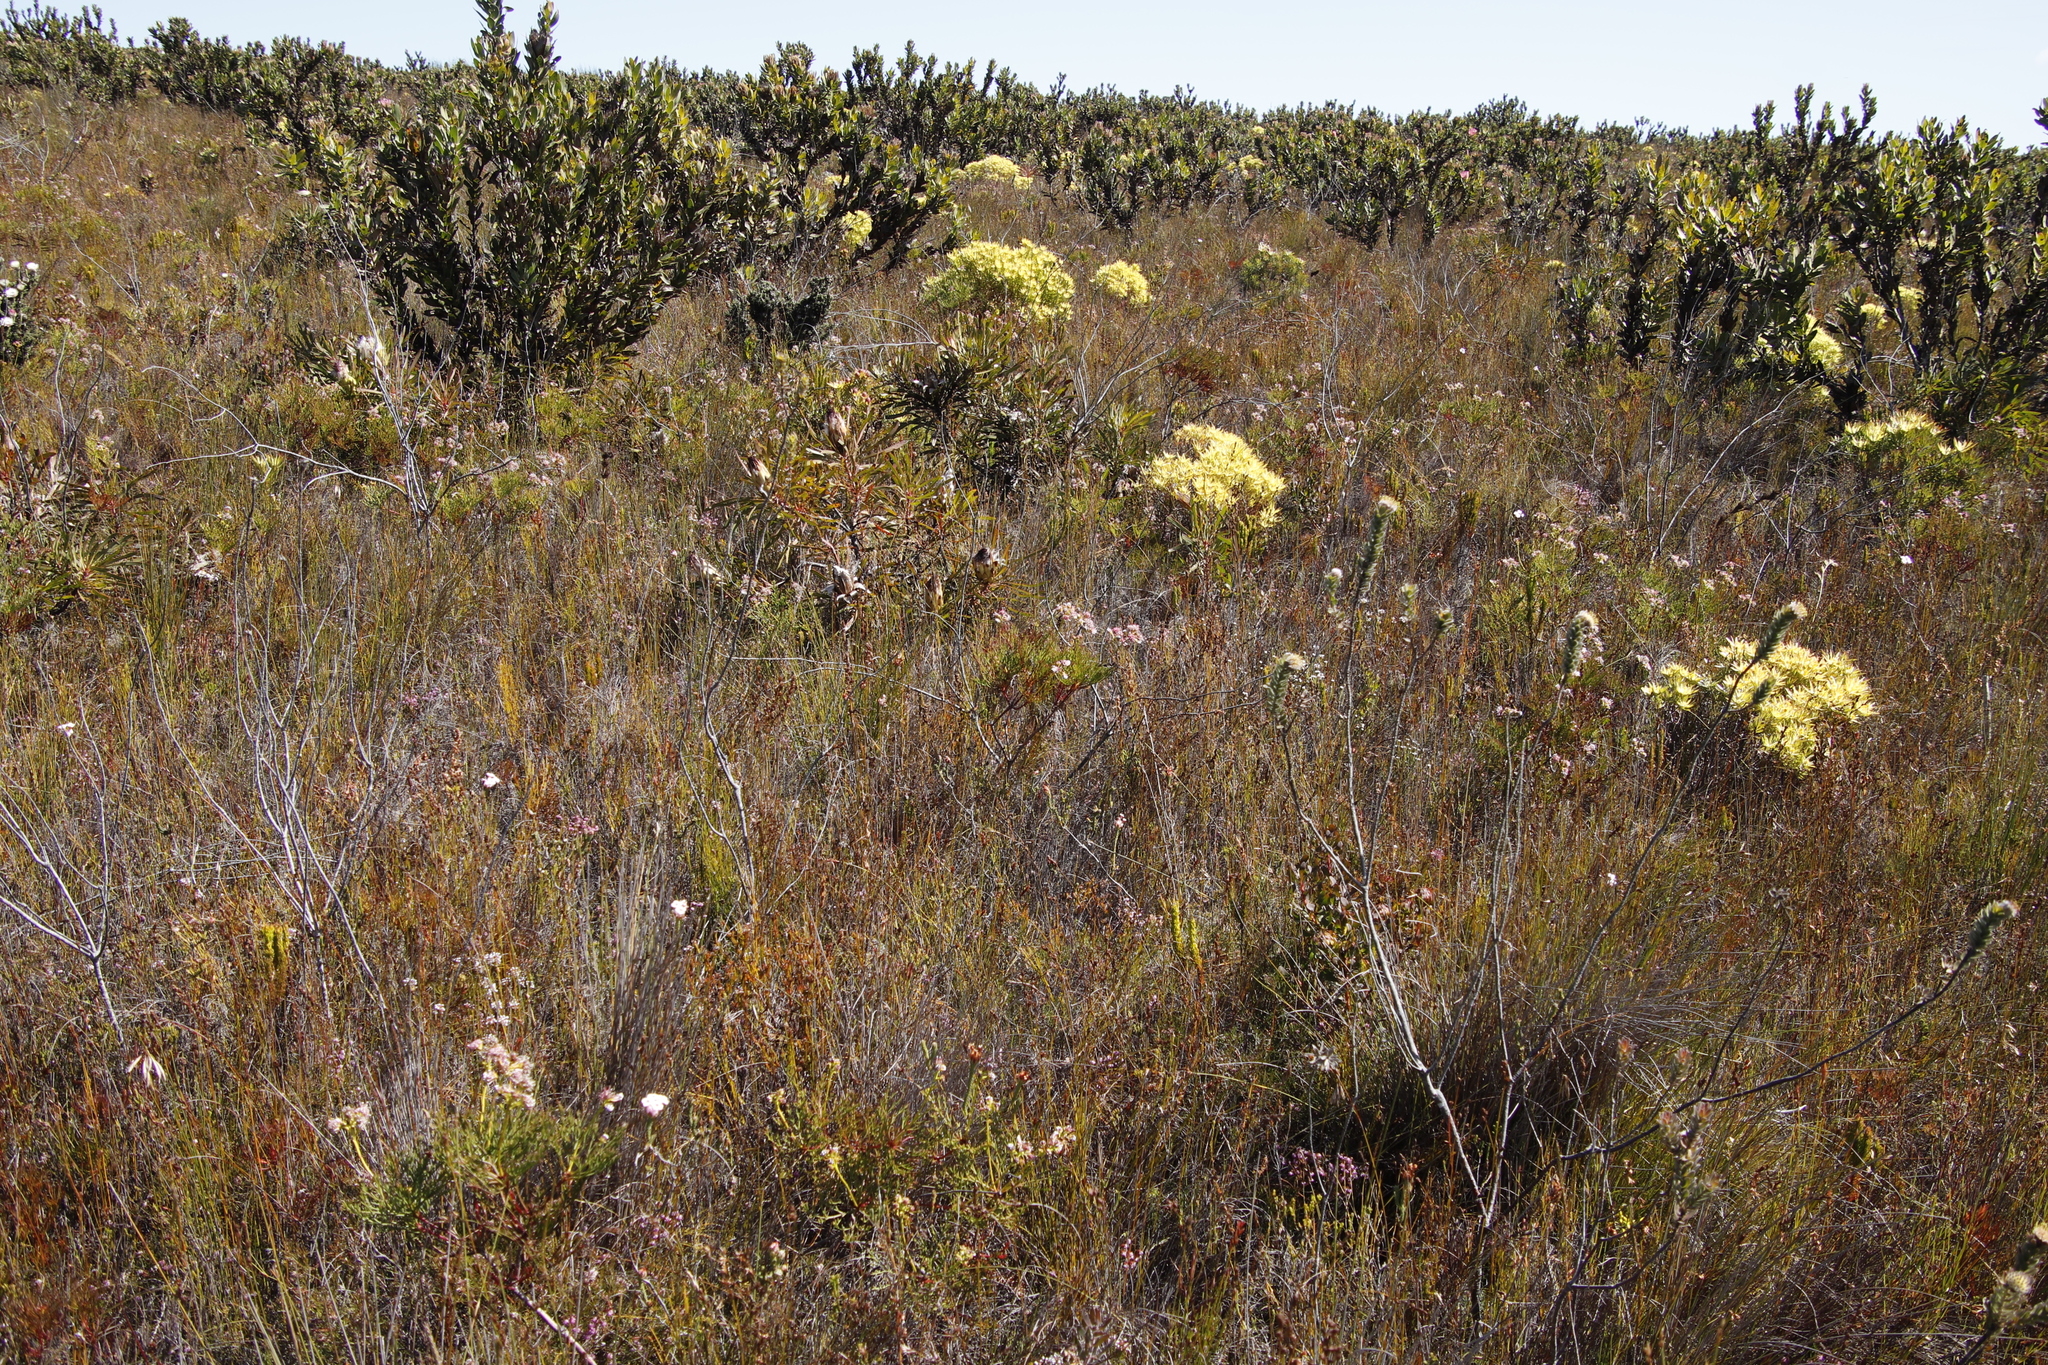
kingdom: Plantae
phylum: Tracheophyta
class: Magnoliopsida
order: Proteales
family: Proteaceae
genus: Leucospermum
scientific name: Leucospermum truncatulum
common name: Oval-leaf pincushion
